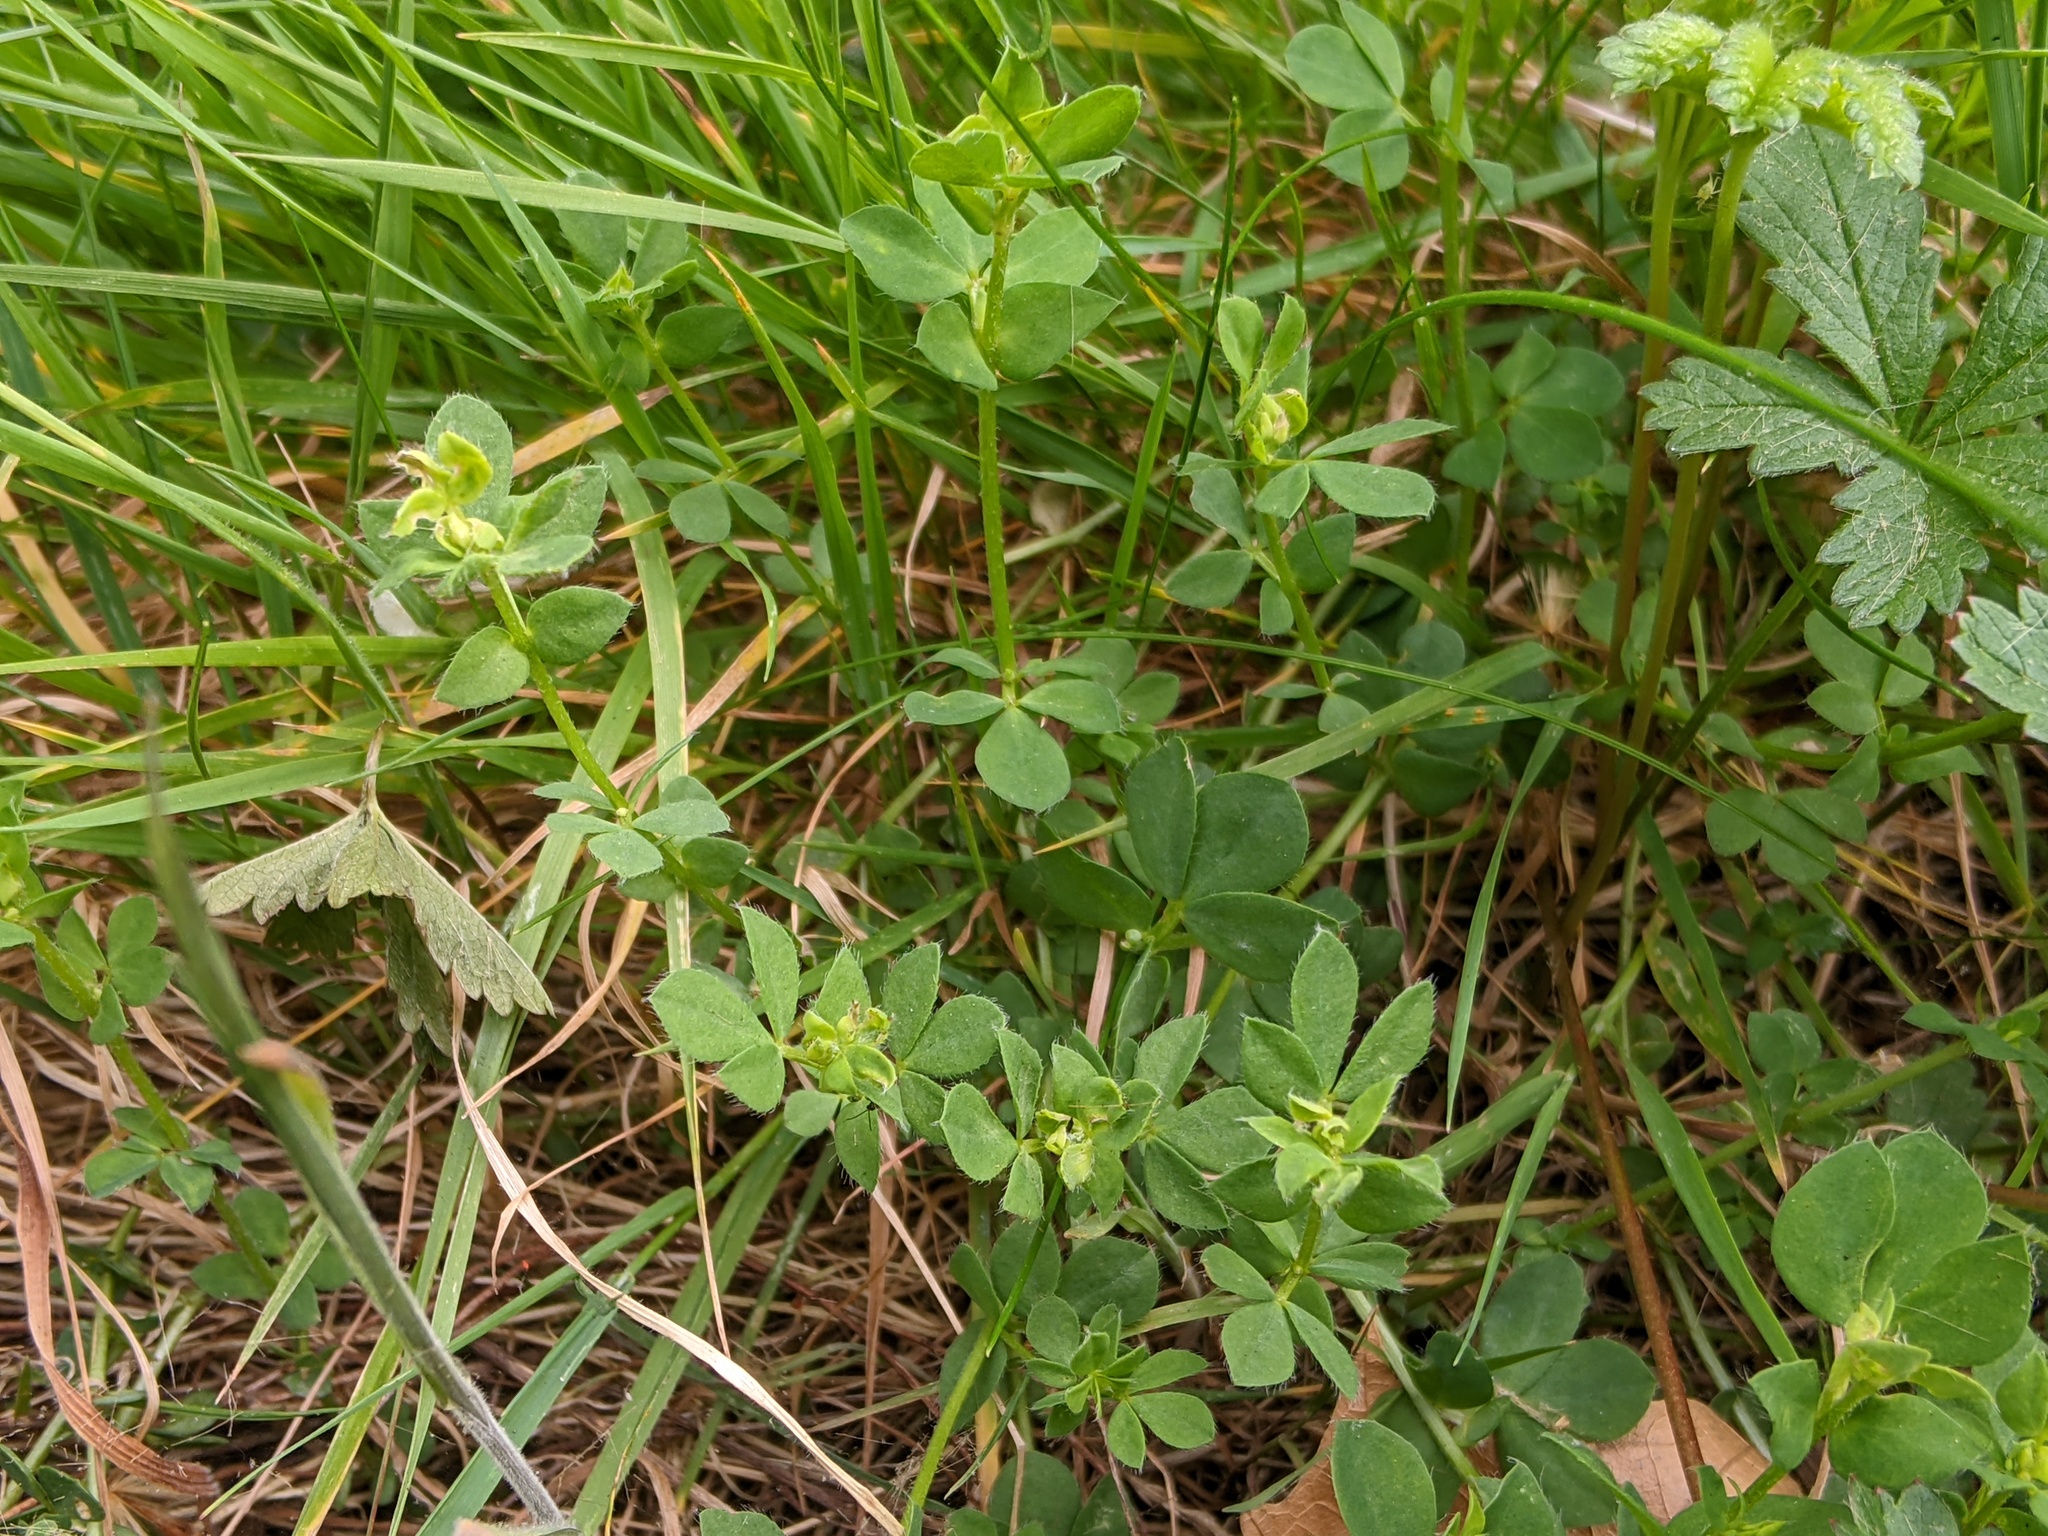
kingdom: Plantae
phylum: Tracheophyta
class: Magnoliopsida
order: Fabales
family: Fabaceae
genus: Lotus
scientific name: Lotus corniculatus
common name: Common bird's-foot-trefoil
